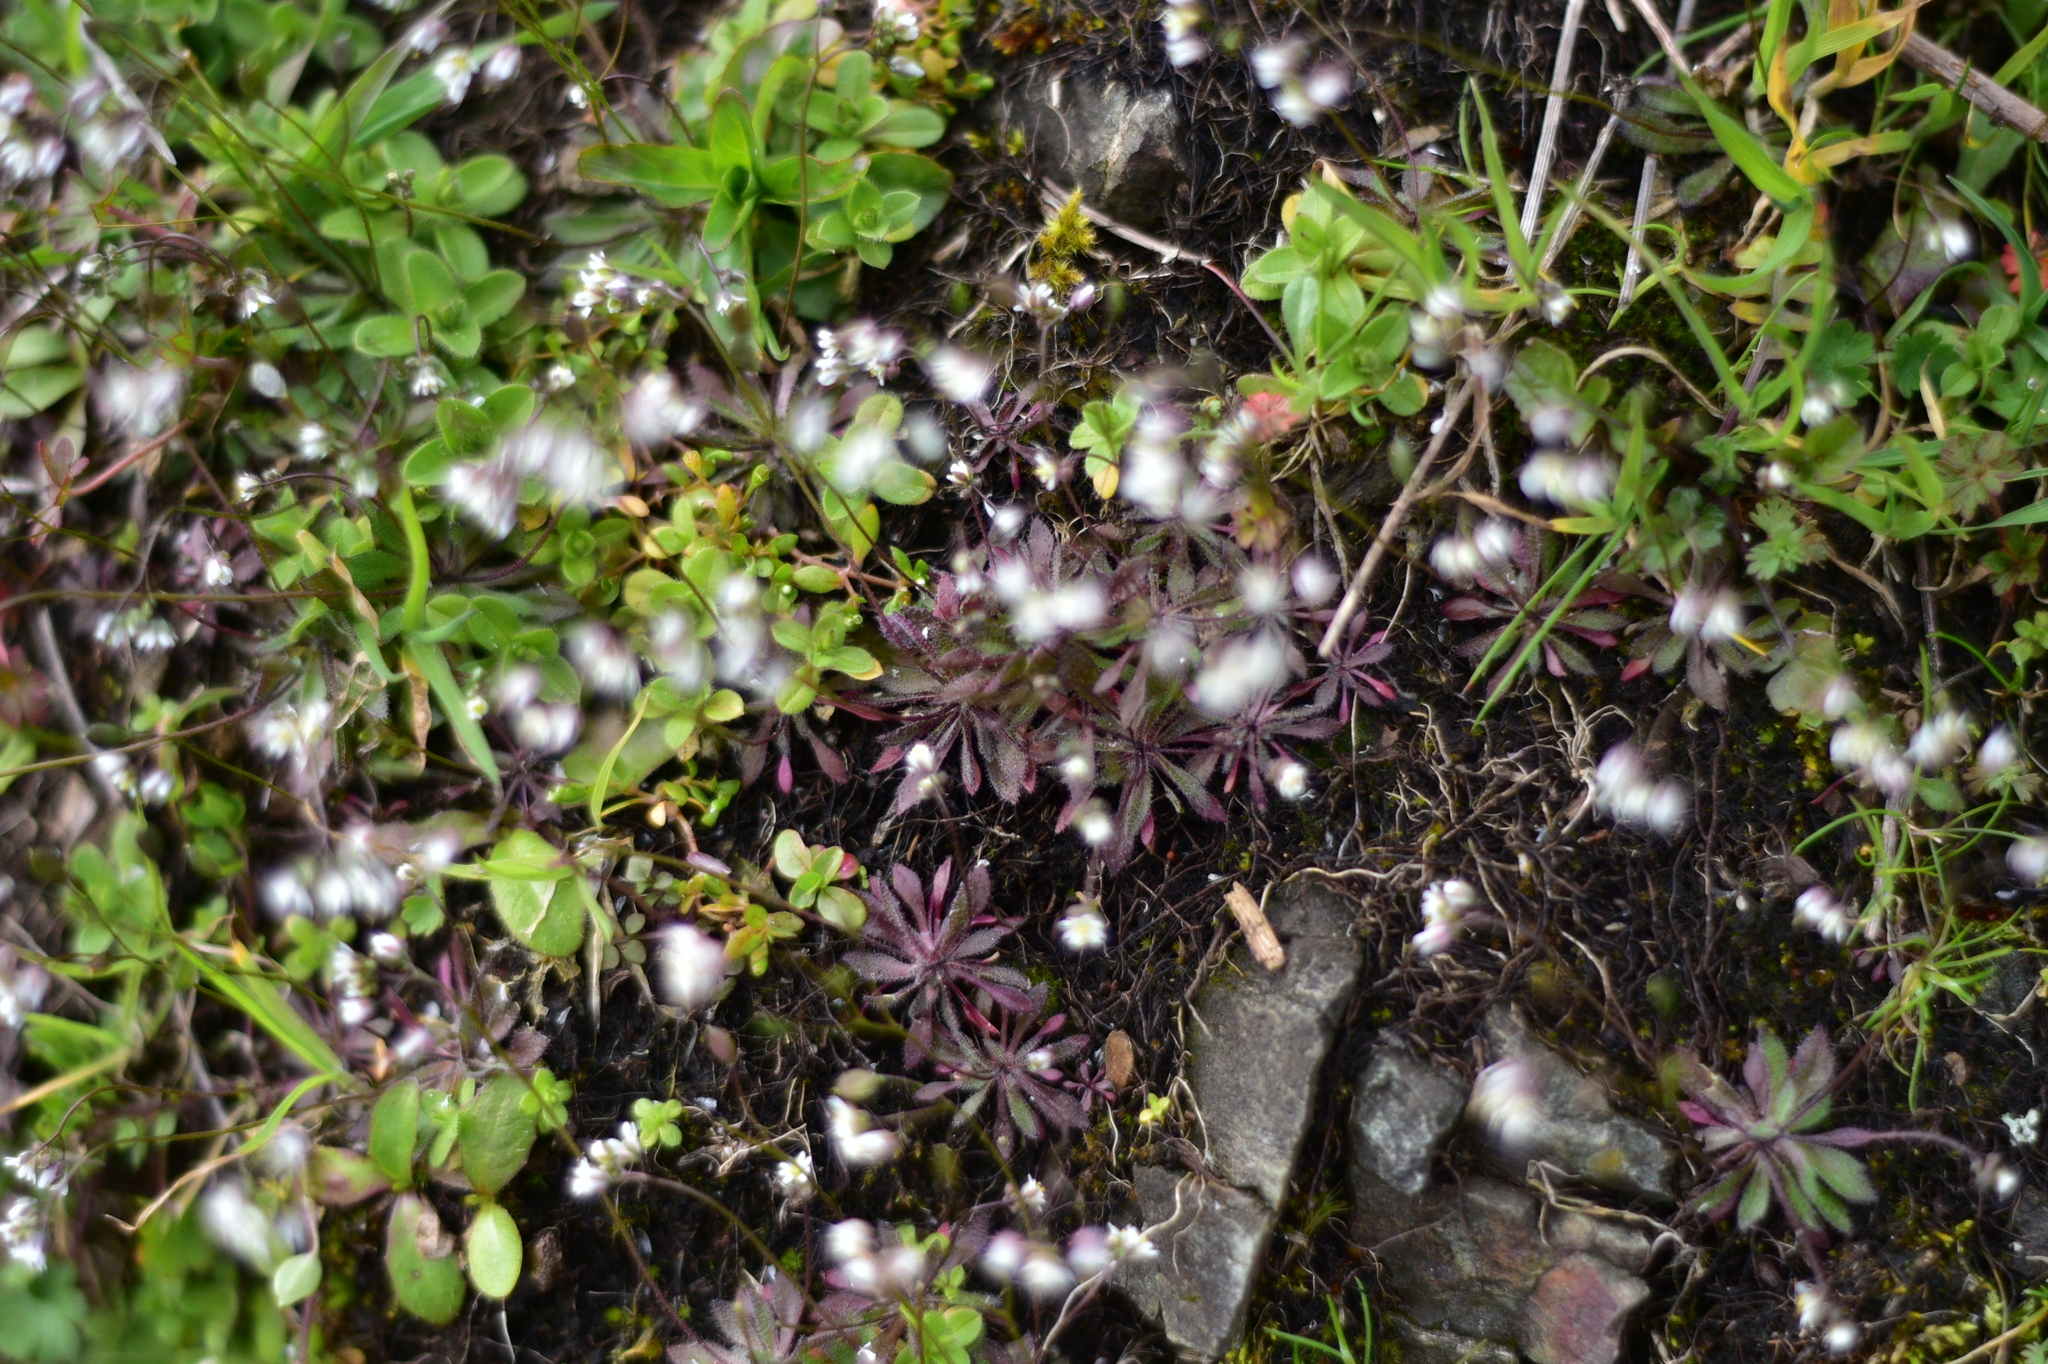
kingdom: Plantae
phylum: Tracheophyta
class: Magnoliopsida
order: Brassicales
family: Brassicaceae
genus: Draba
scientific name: Draba verna
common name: Spring draba
